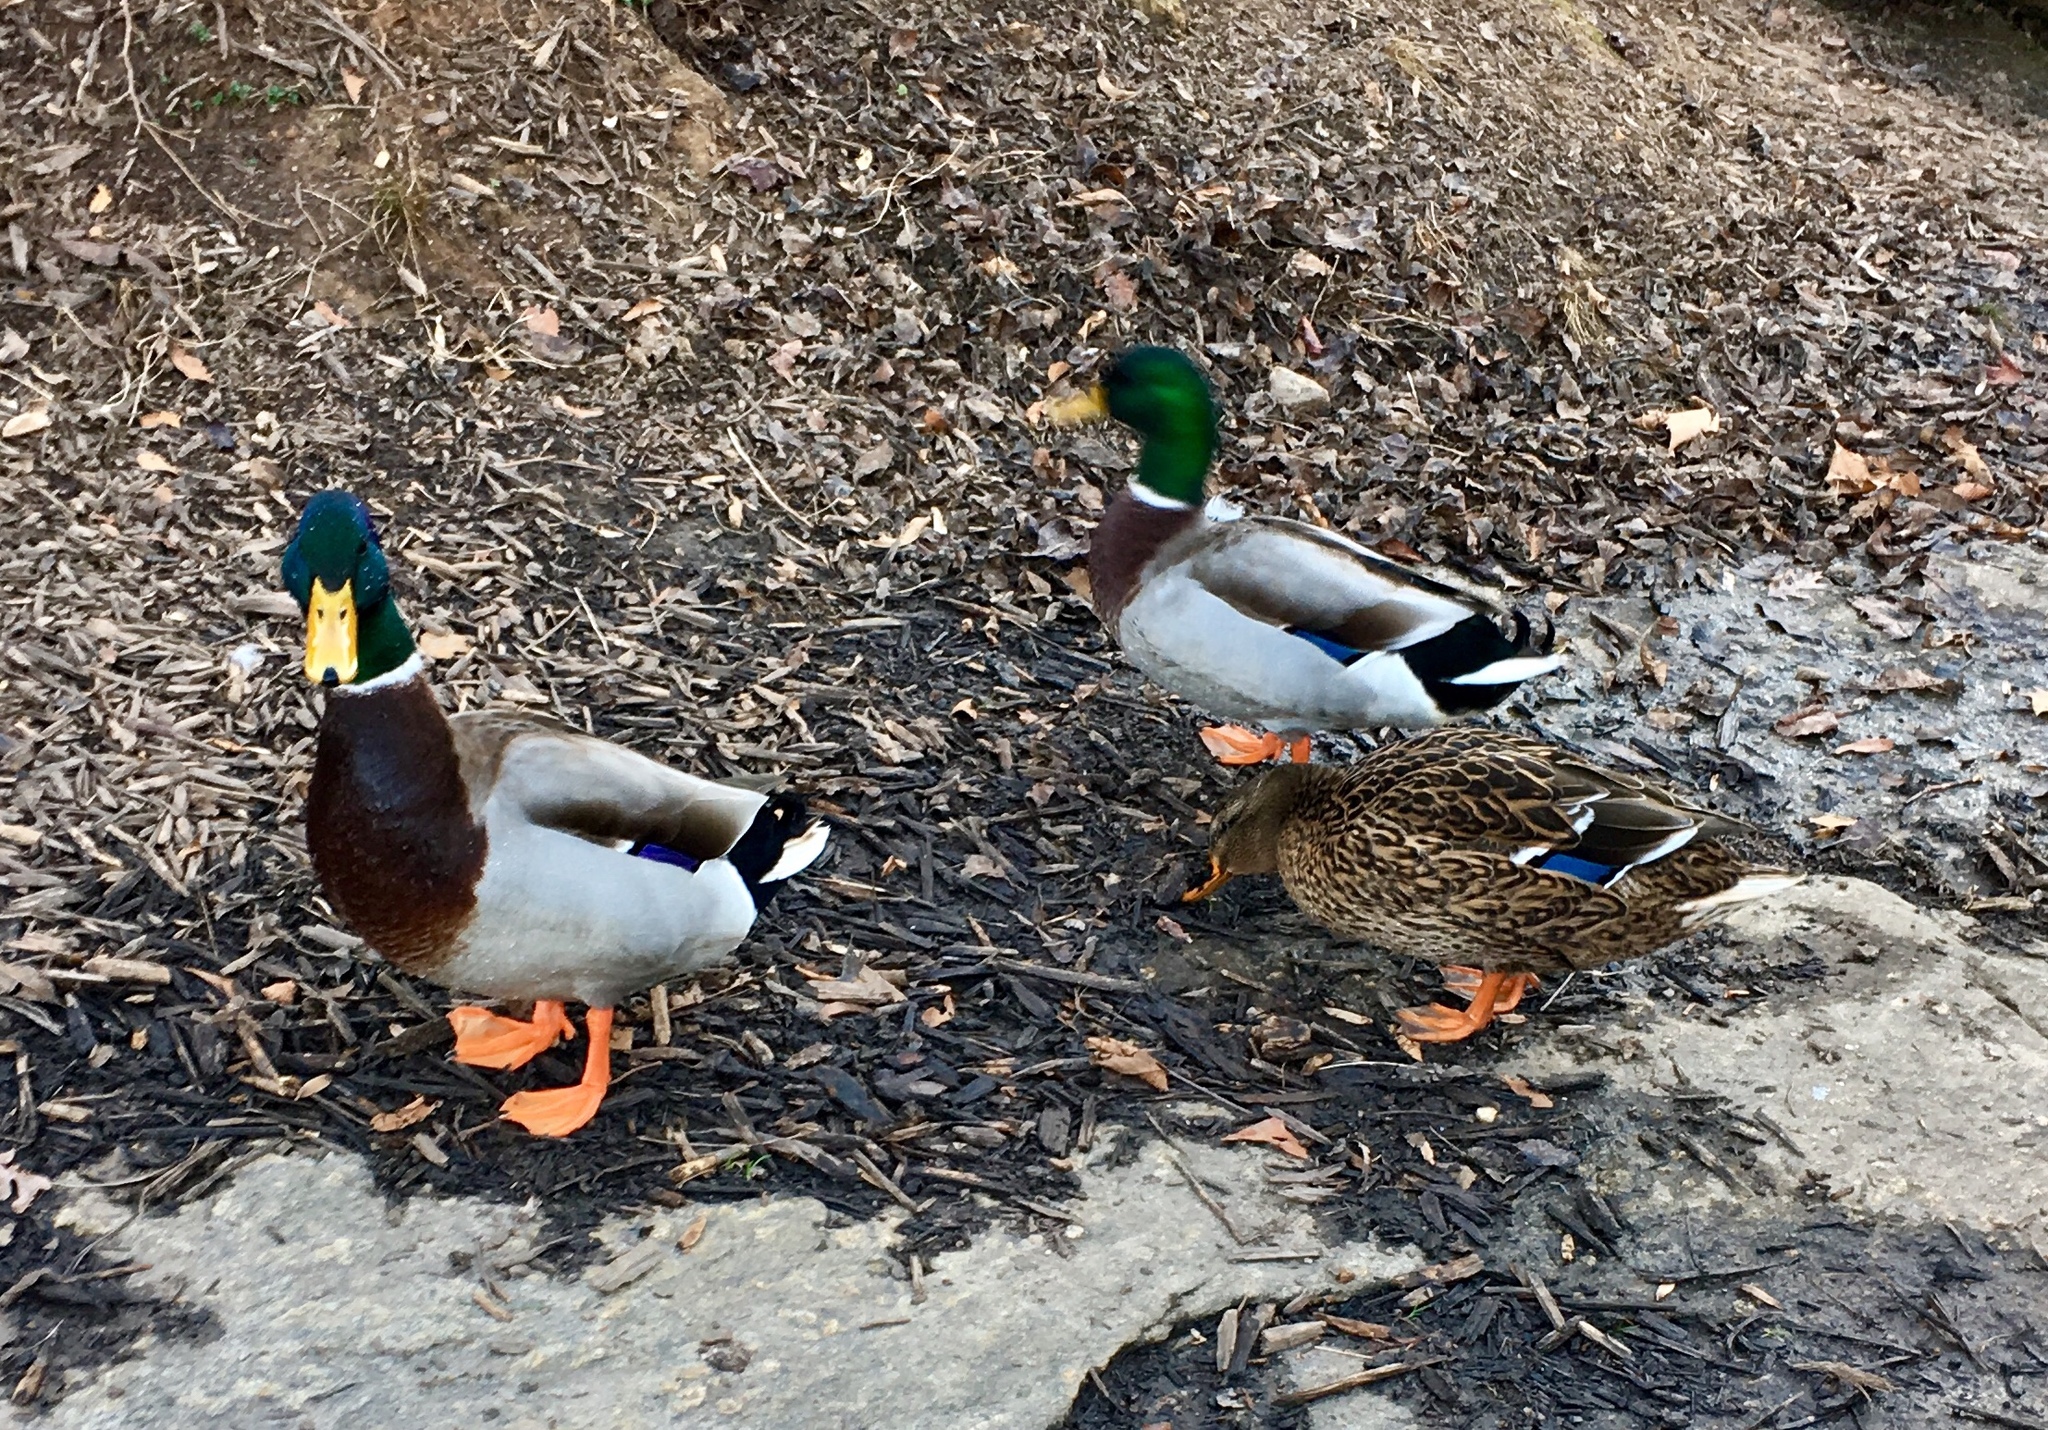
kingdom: Animalia
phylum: Chordata
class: Aves
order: Anseriformes
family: Anatidae
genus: Anas
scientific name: Anas platyrhynchos
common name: Mallard
